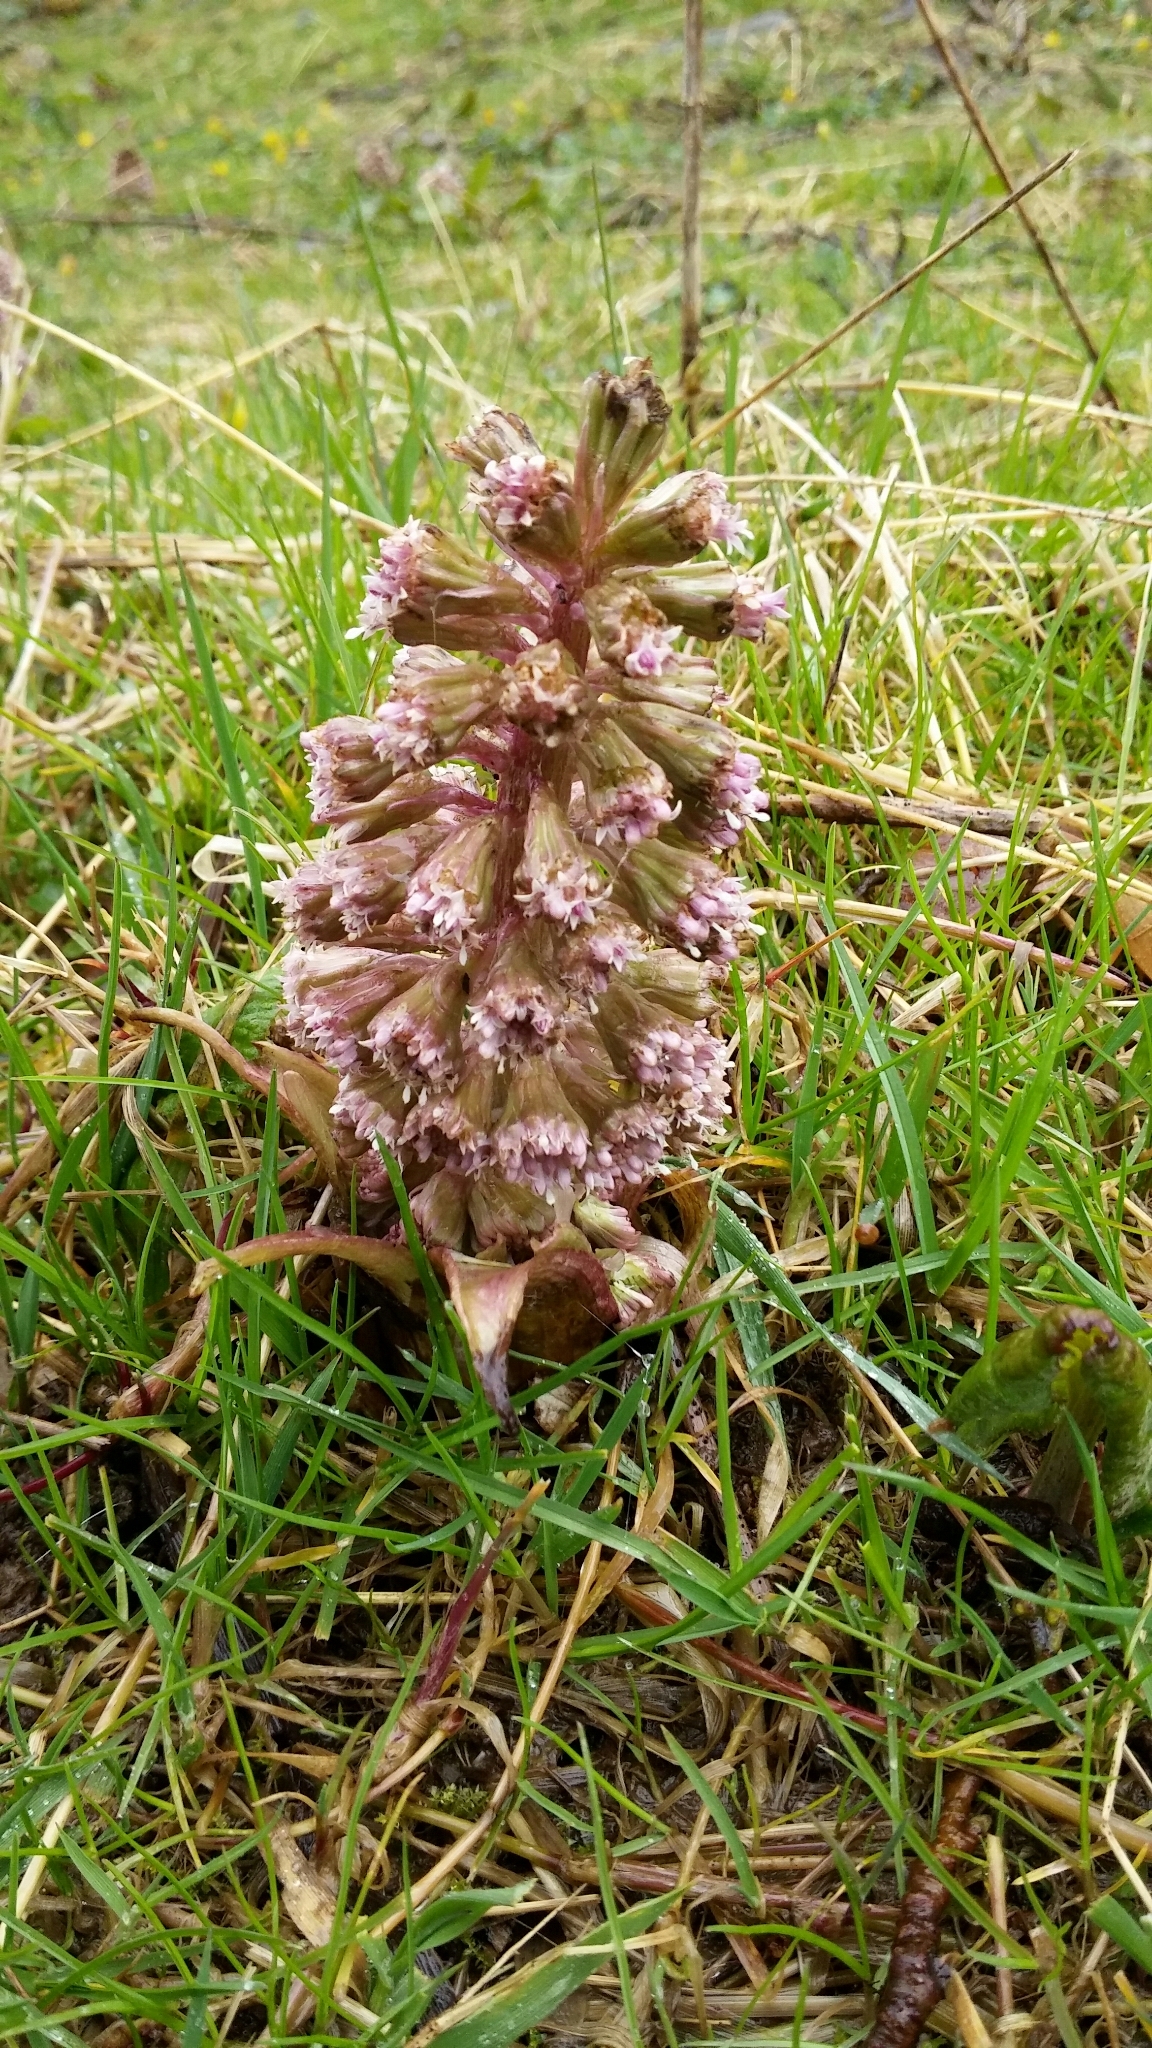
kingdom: Plantae
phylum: Tracheophyta
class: Magnoliopsida
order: Asterales
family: Asteraceae
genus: Petasites
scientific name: Petasites hybridus
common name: Butterbur
